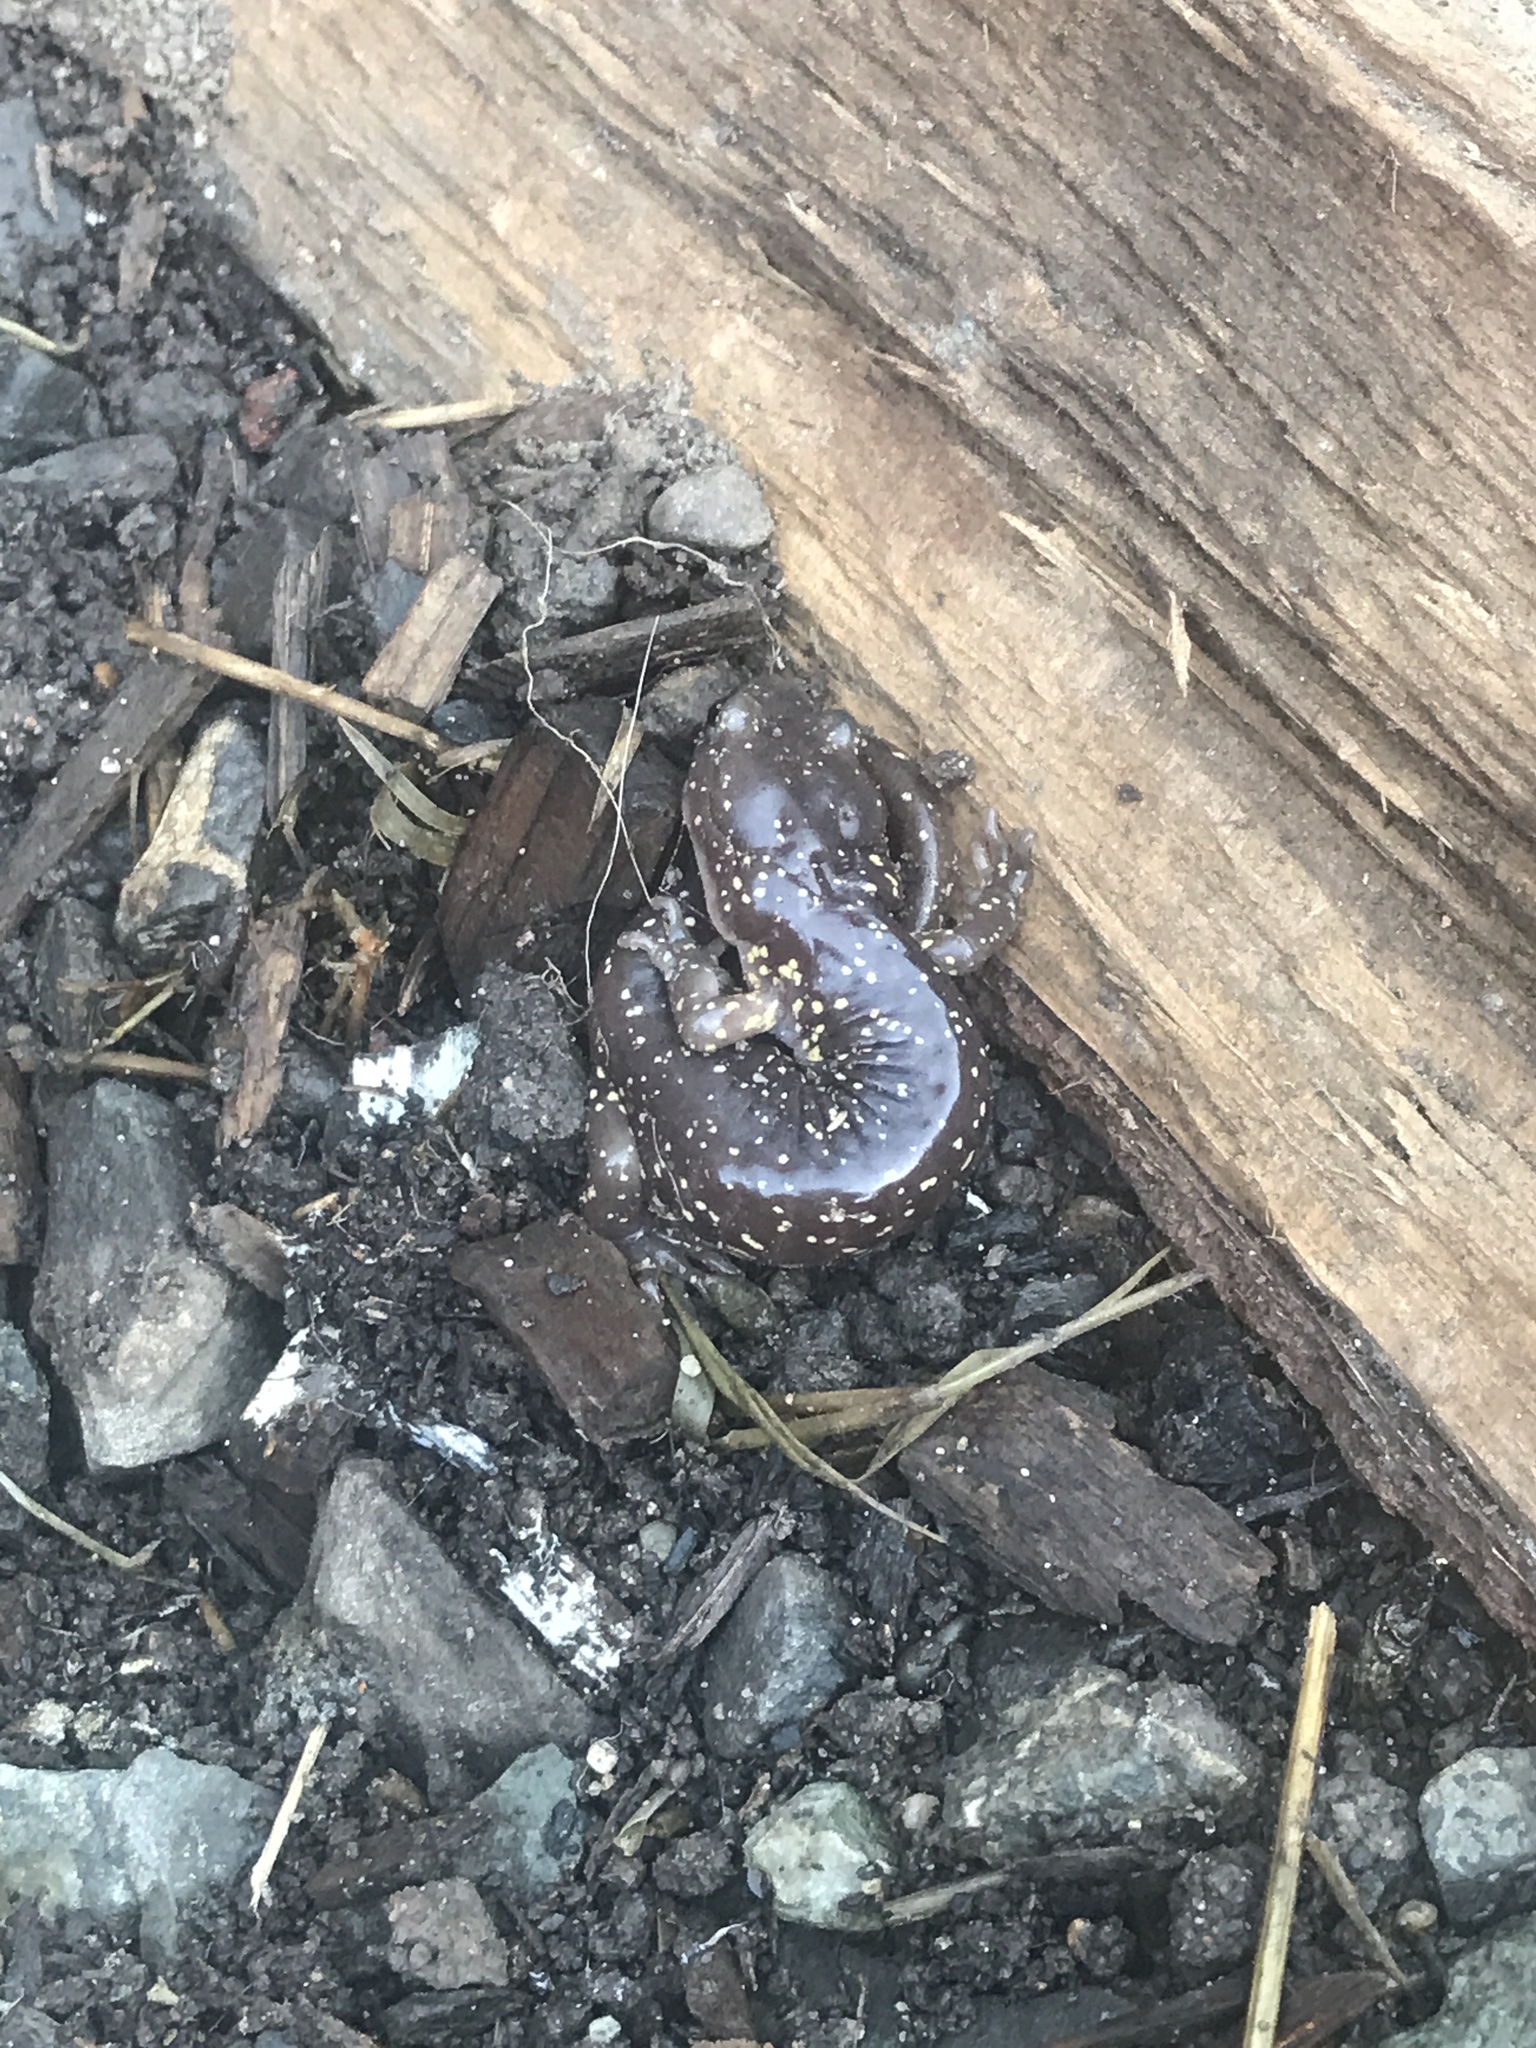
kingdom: Animalia
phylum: Chordata
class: Amphibia
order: Caudata
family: Plethodontidae
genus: Aneides
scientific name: Aneides lugubris
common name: Arboreal salamander
